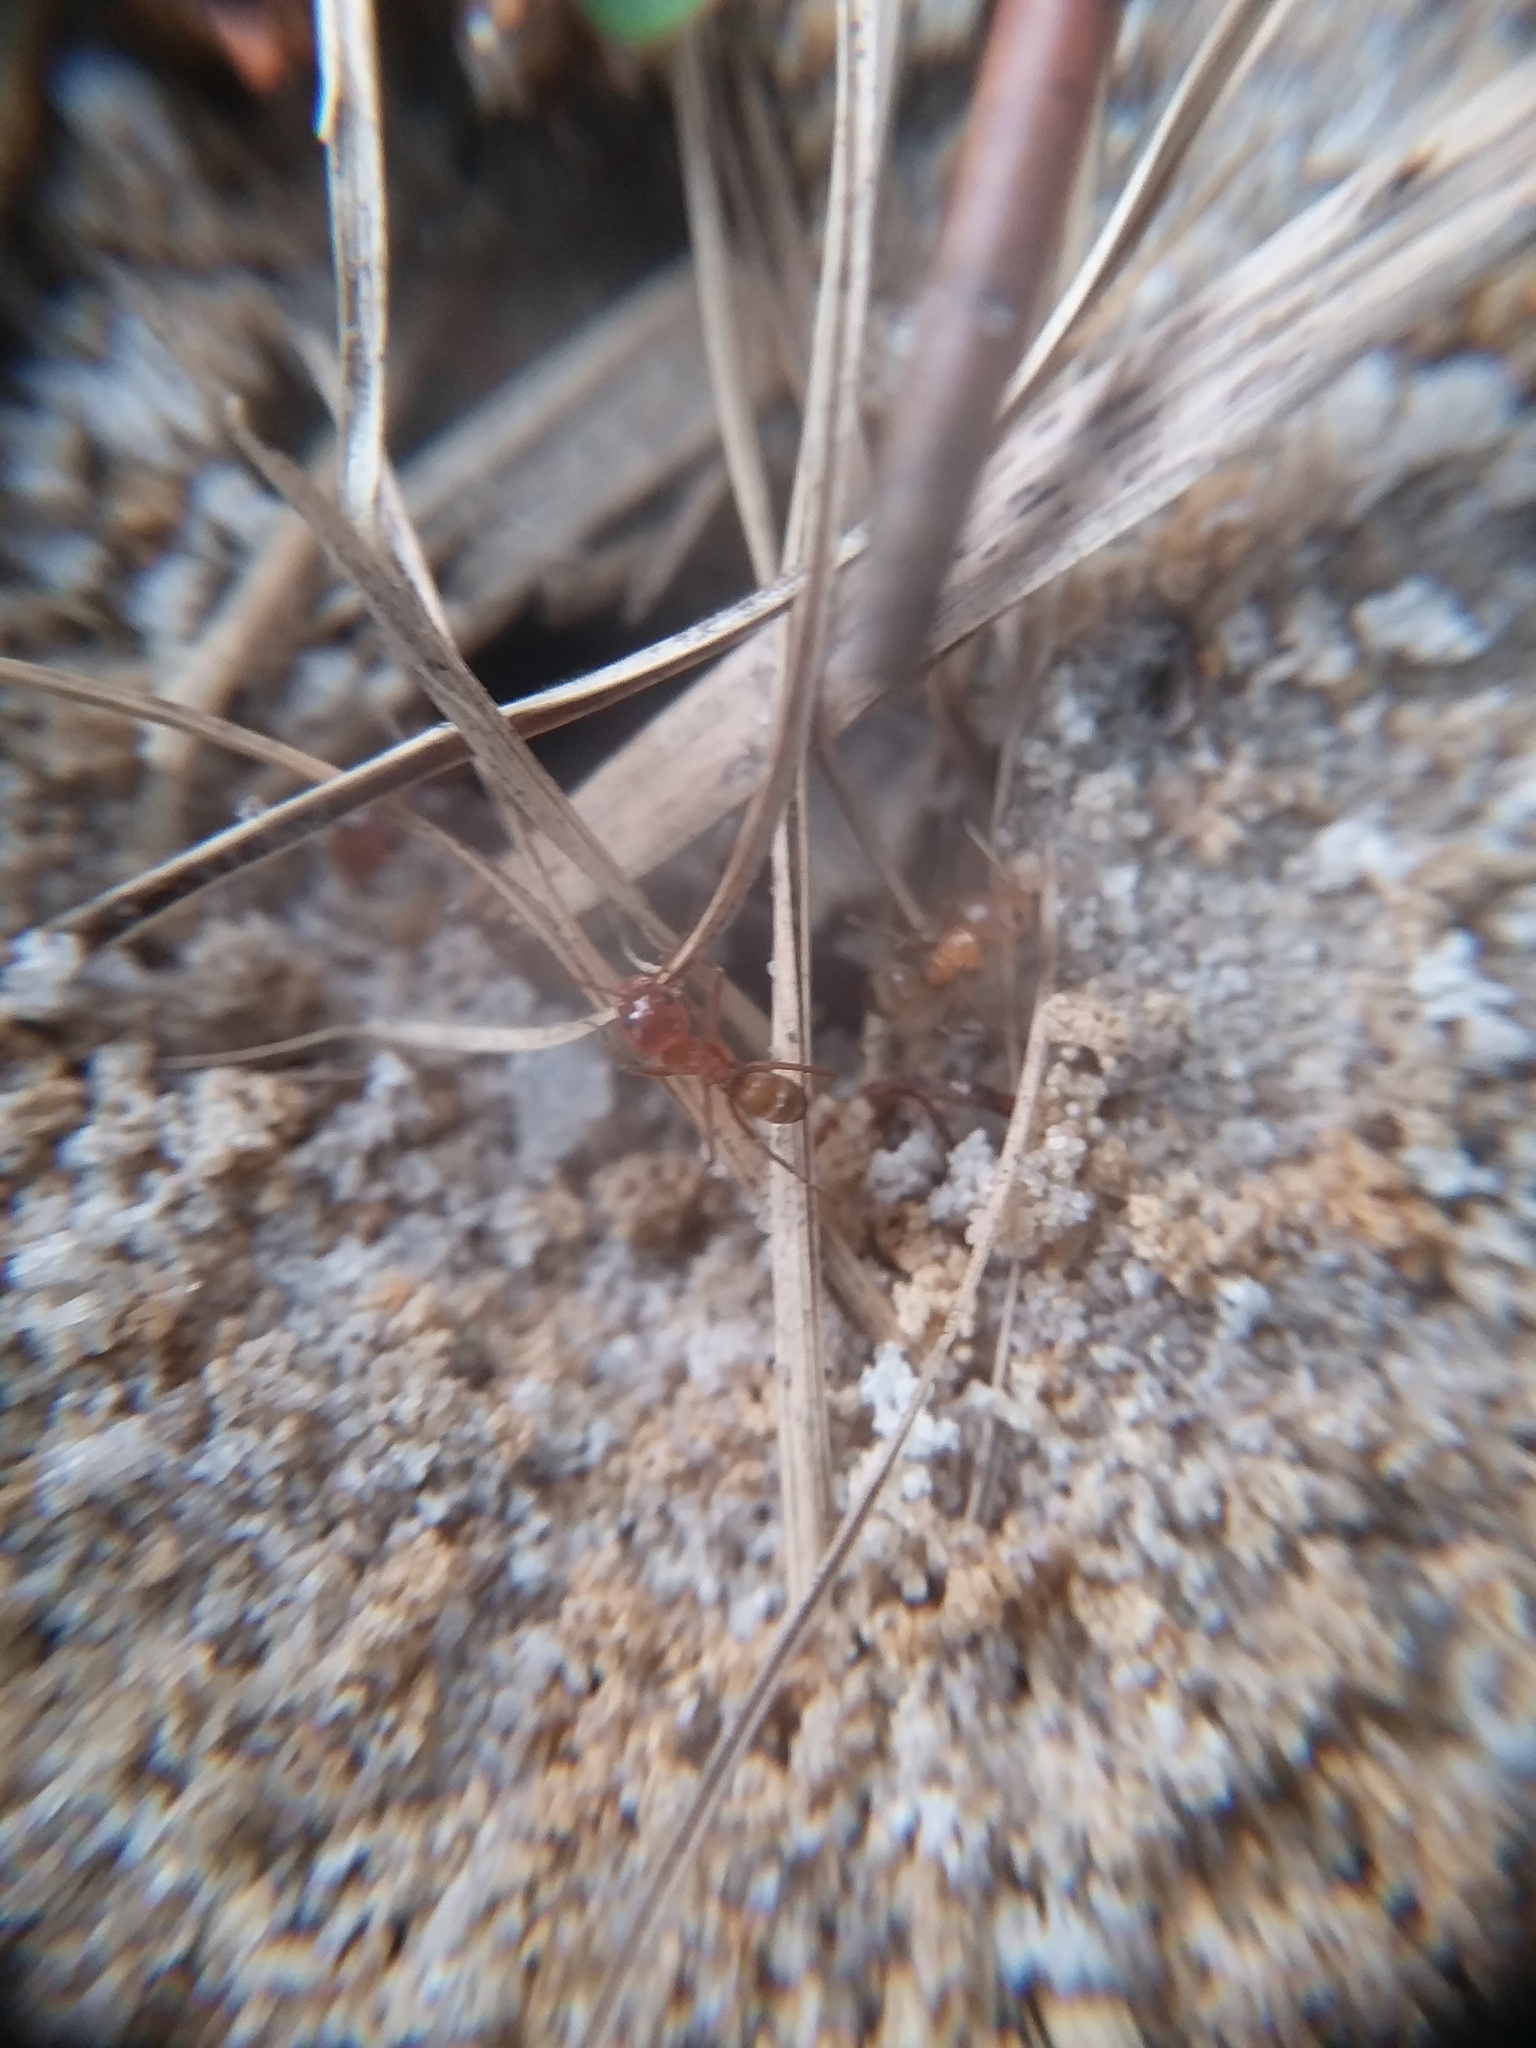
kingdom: Animalia
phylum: Arthropoda
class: Insecta
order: Hymenoptera
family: Formicidae
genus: Dorymyrmex
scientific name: Dorymyrmex bureni
